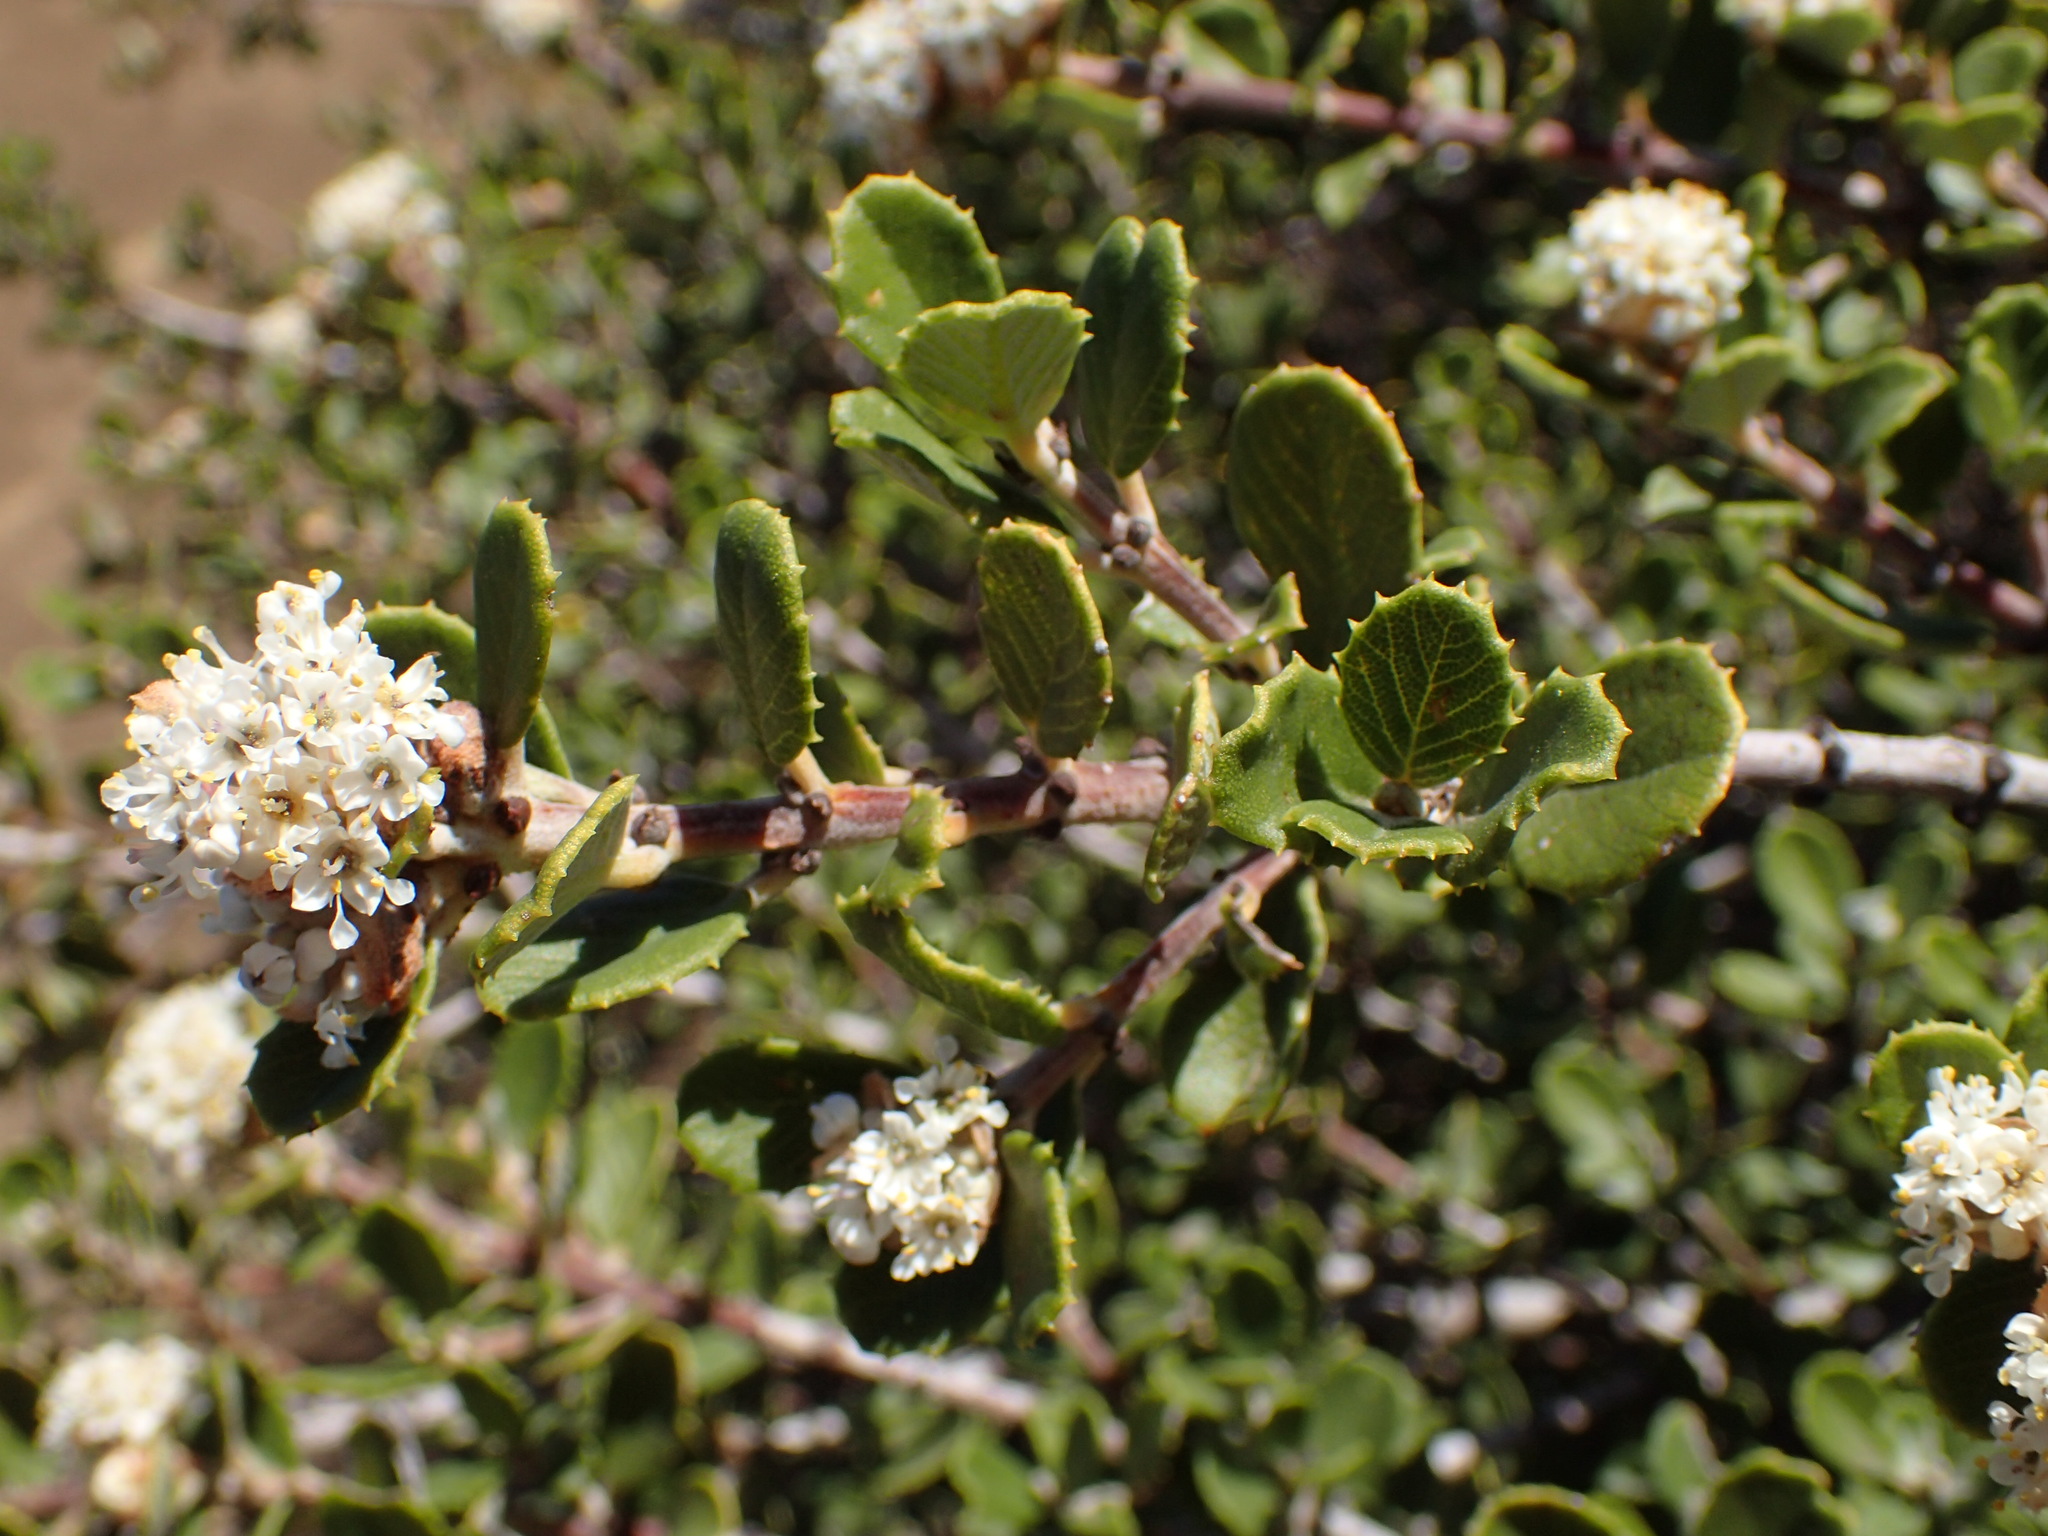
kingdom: Plantae
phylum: Tracheophyta
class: Magnoliopsida
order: Rosales
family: Rhamnaceae
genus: Ceanothus
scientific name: Ceanothus crassifolius
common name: Hoaryleaf ceanothus
